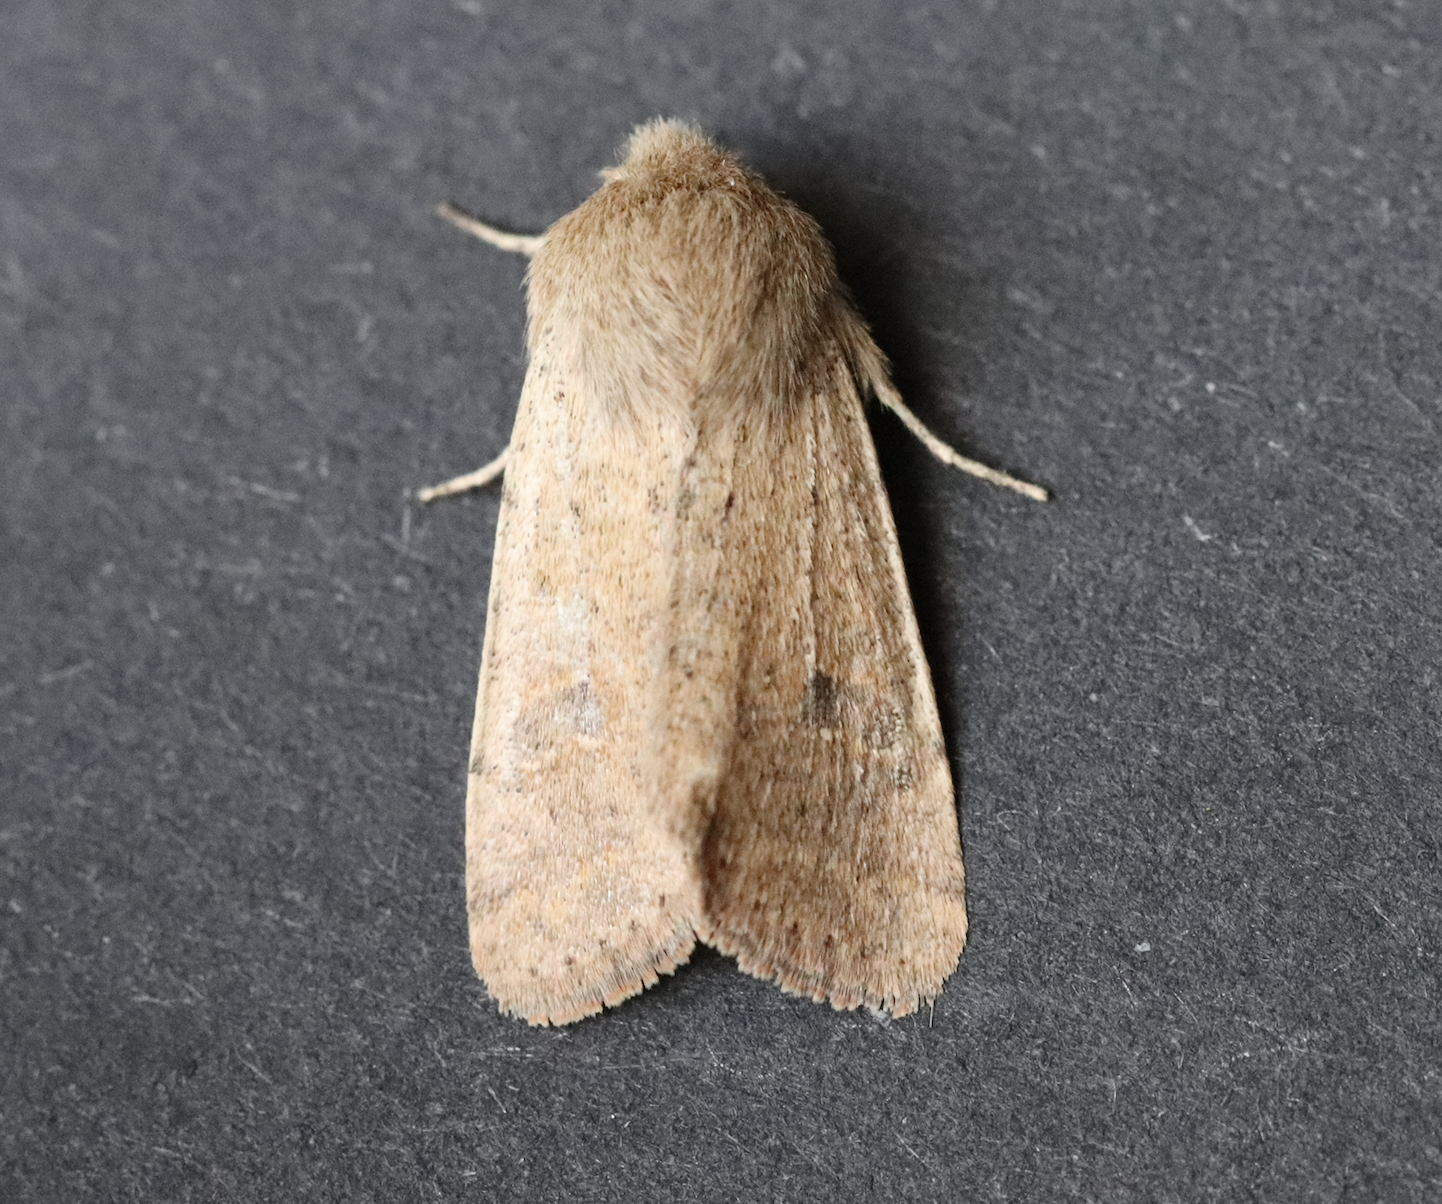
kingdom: Animalia
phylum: Arthropoda
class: Insecta
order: Lepidoptera
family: Noctuidae
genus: Orthosia
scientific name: Orthosia cruda
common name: Small quaker
